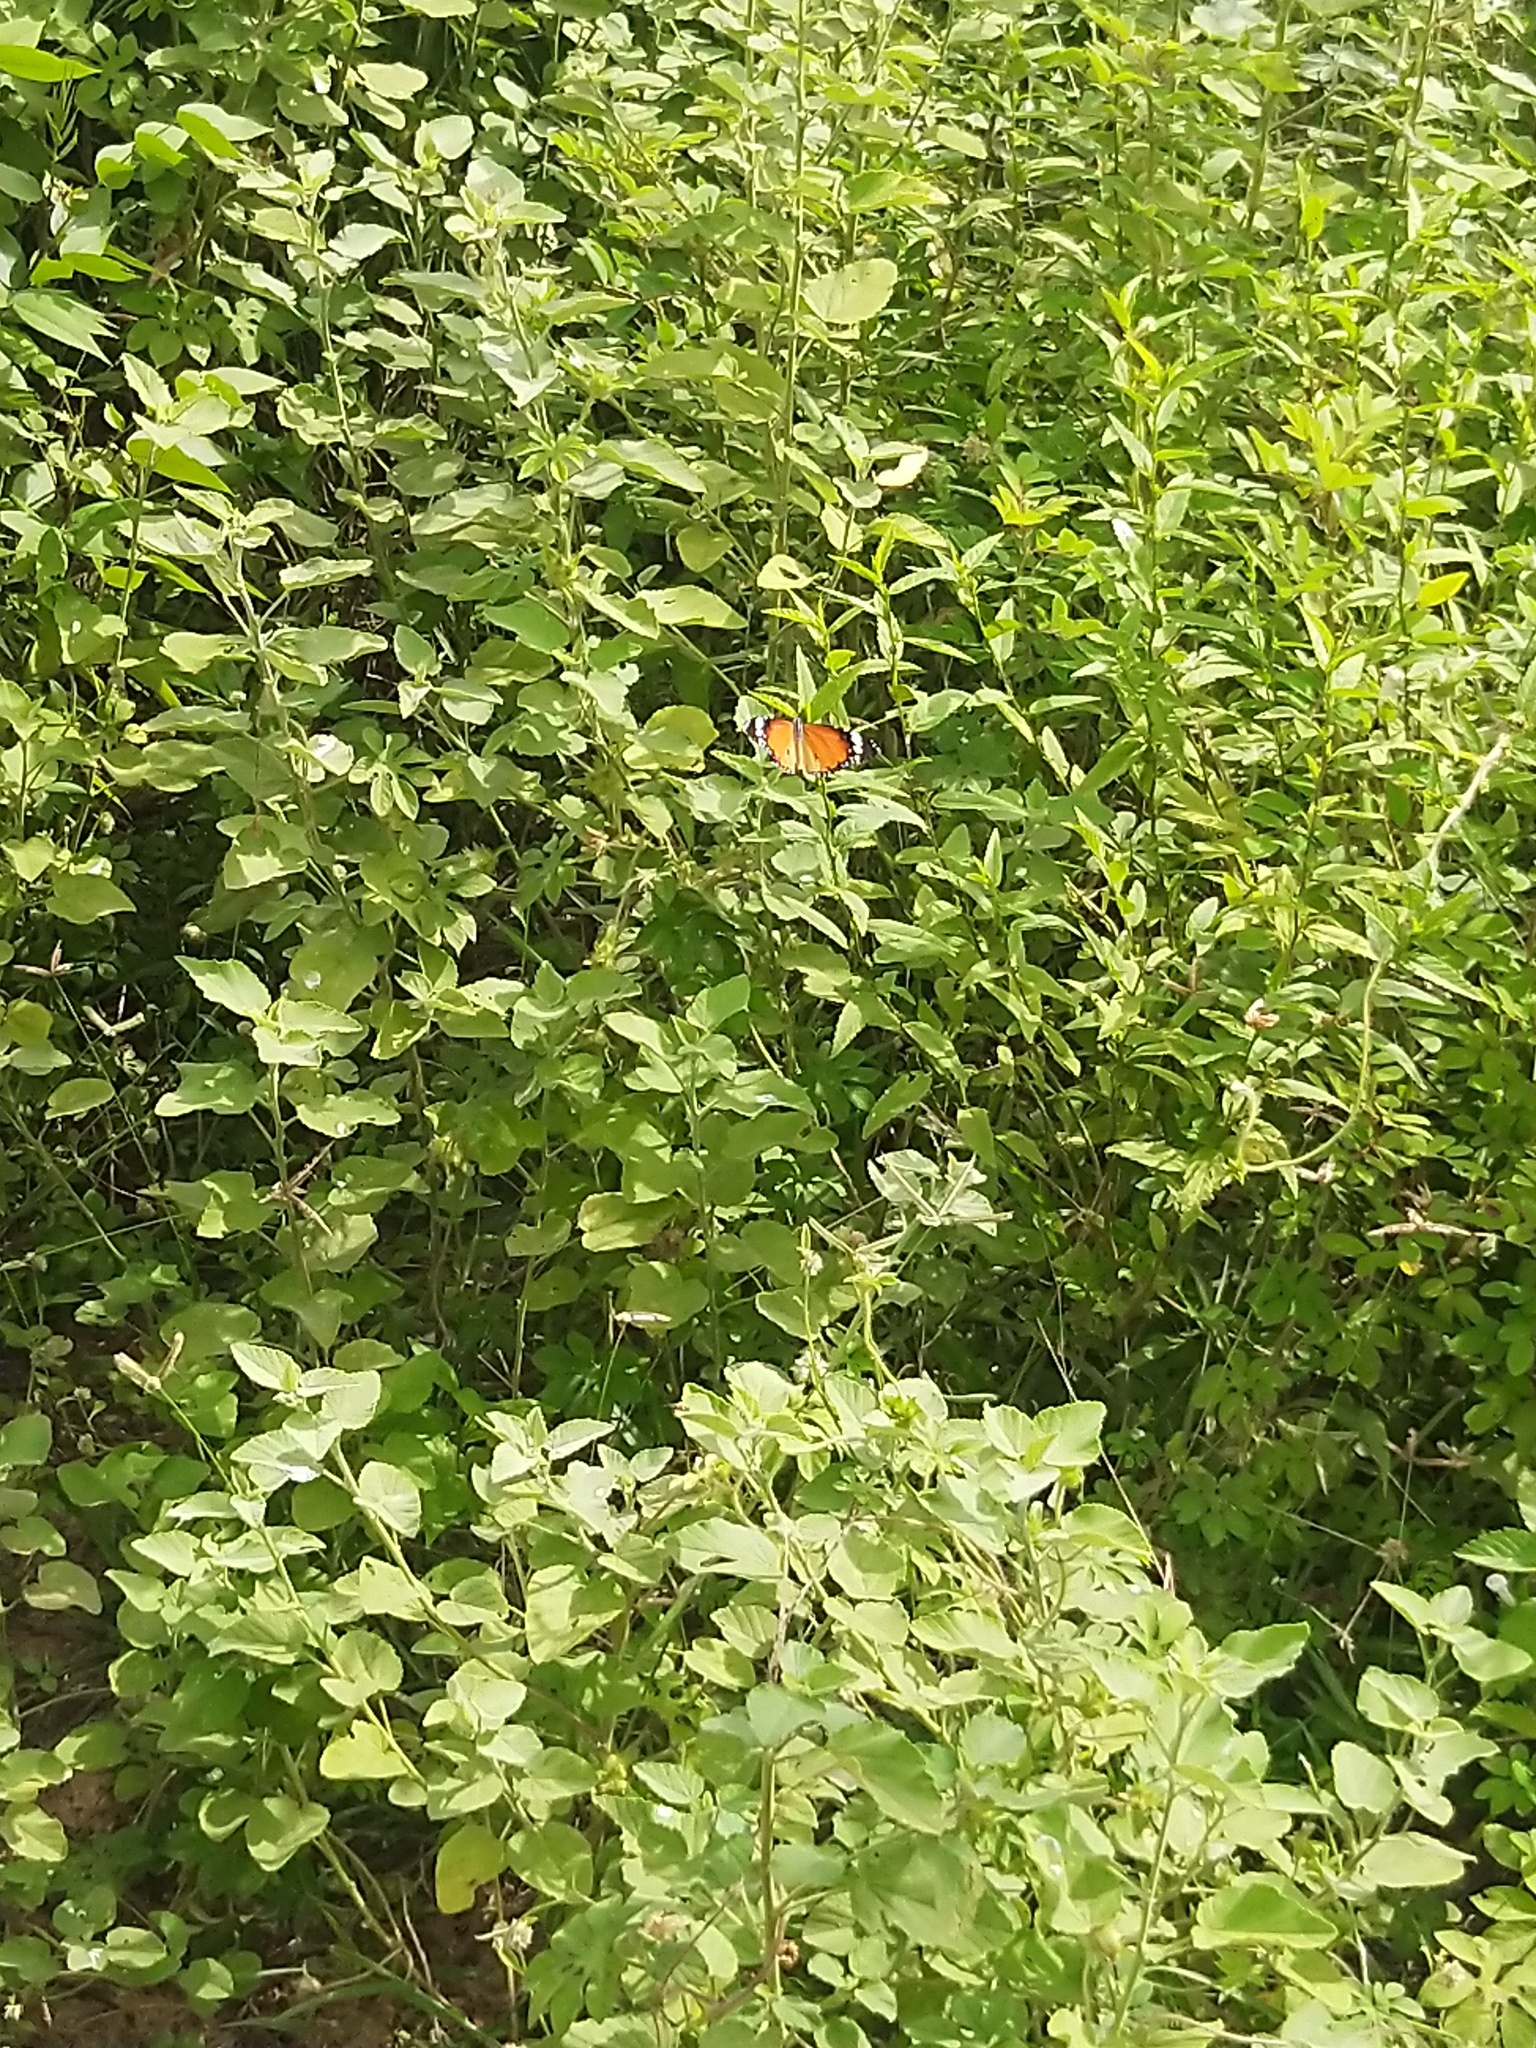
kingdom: Animalia
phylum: Arthropoda
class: Insecta
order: Lepidoptera
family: Nymphalidae
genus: Danaus
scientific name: Danaus chrysippus
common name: Plain tiger
